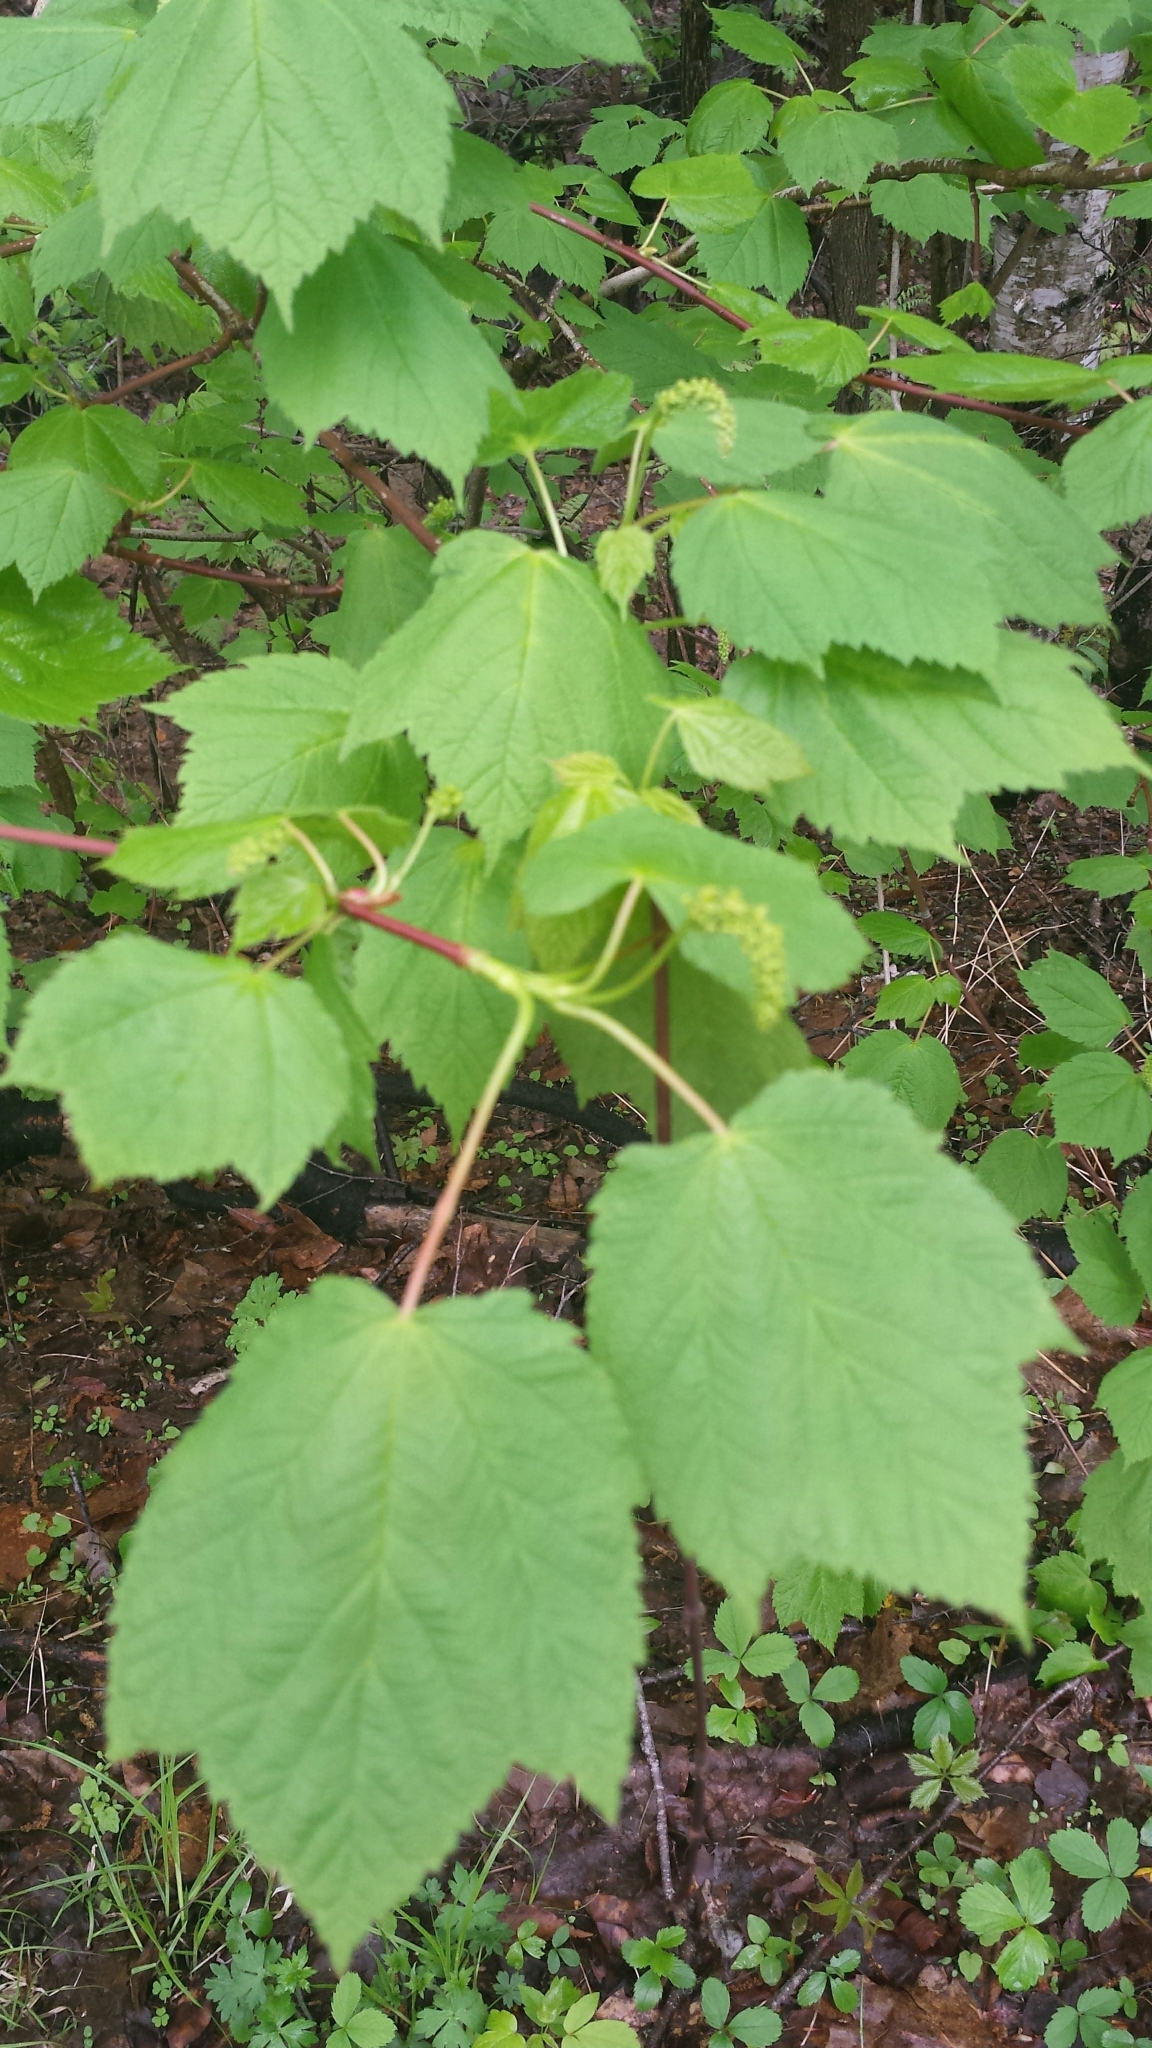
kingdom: Plantae
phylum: Tracheophyta
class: Magnoliopsida
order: Sapindales
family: Sapindaceae
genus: Acer
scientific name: Acer spicatum
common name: Mountain maple
